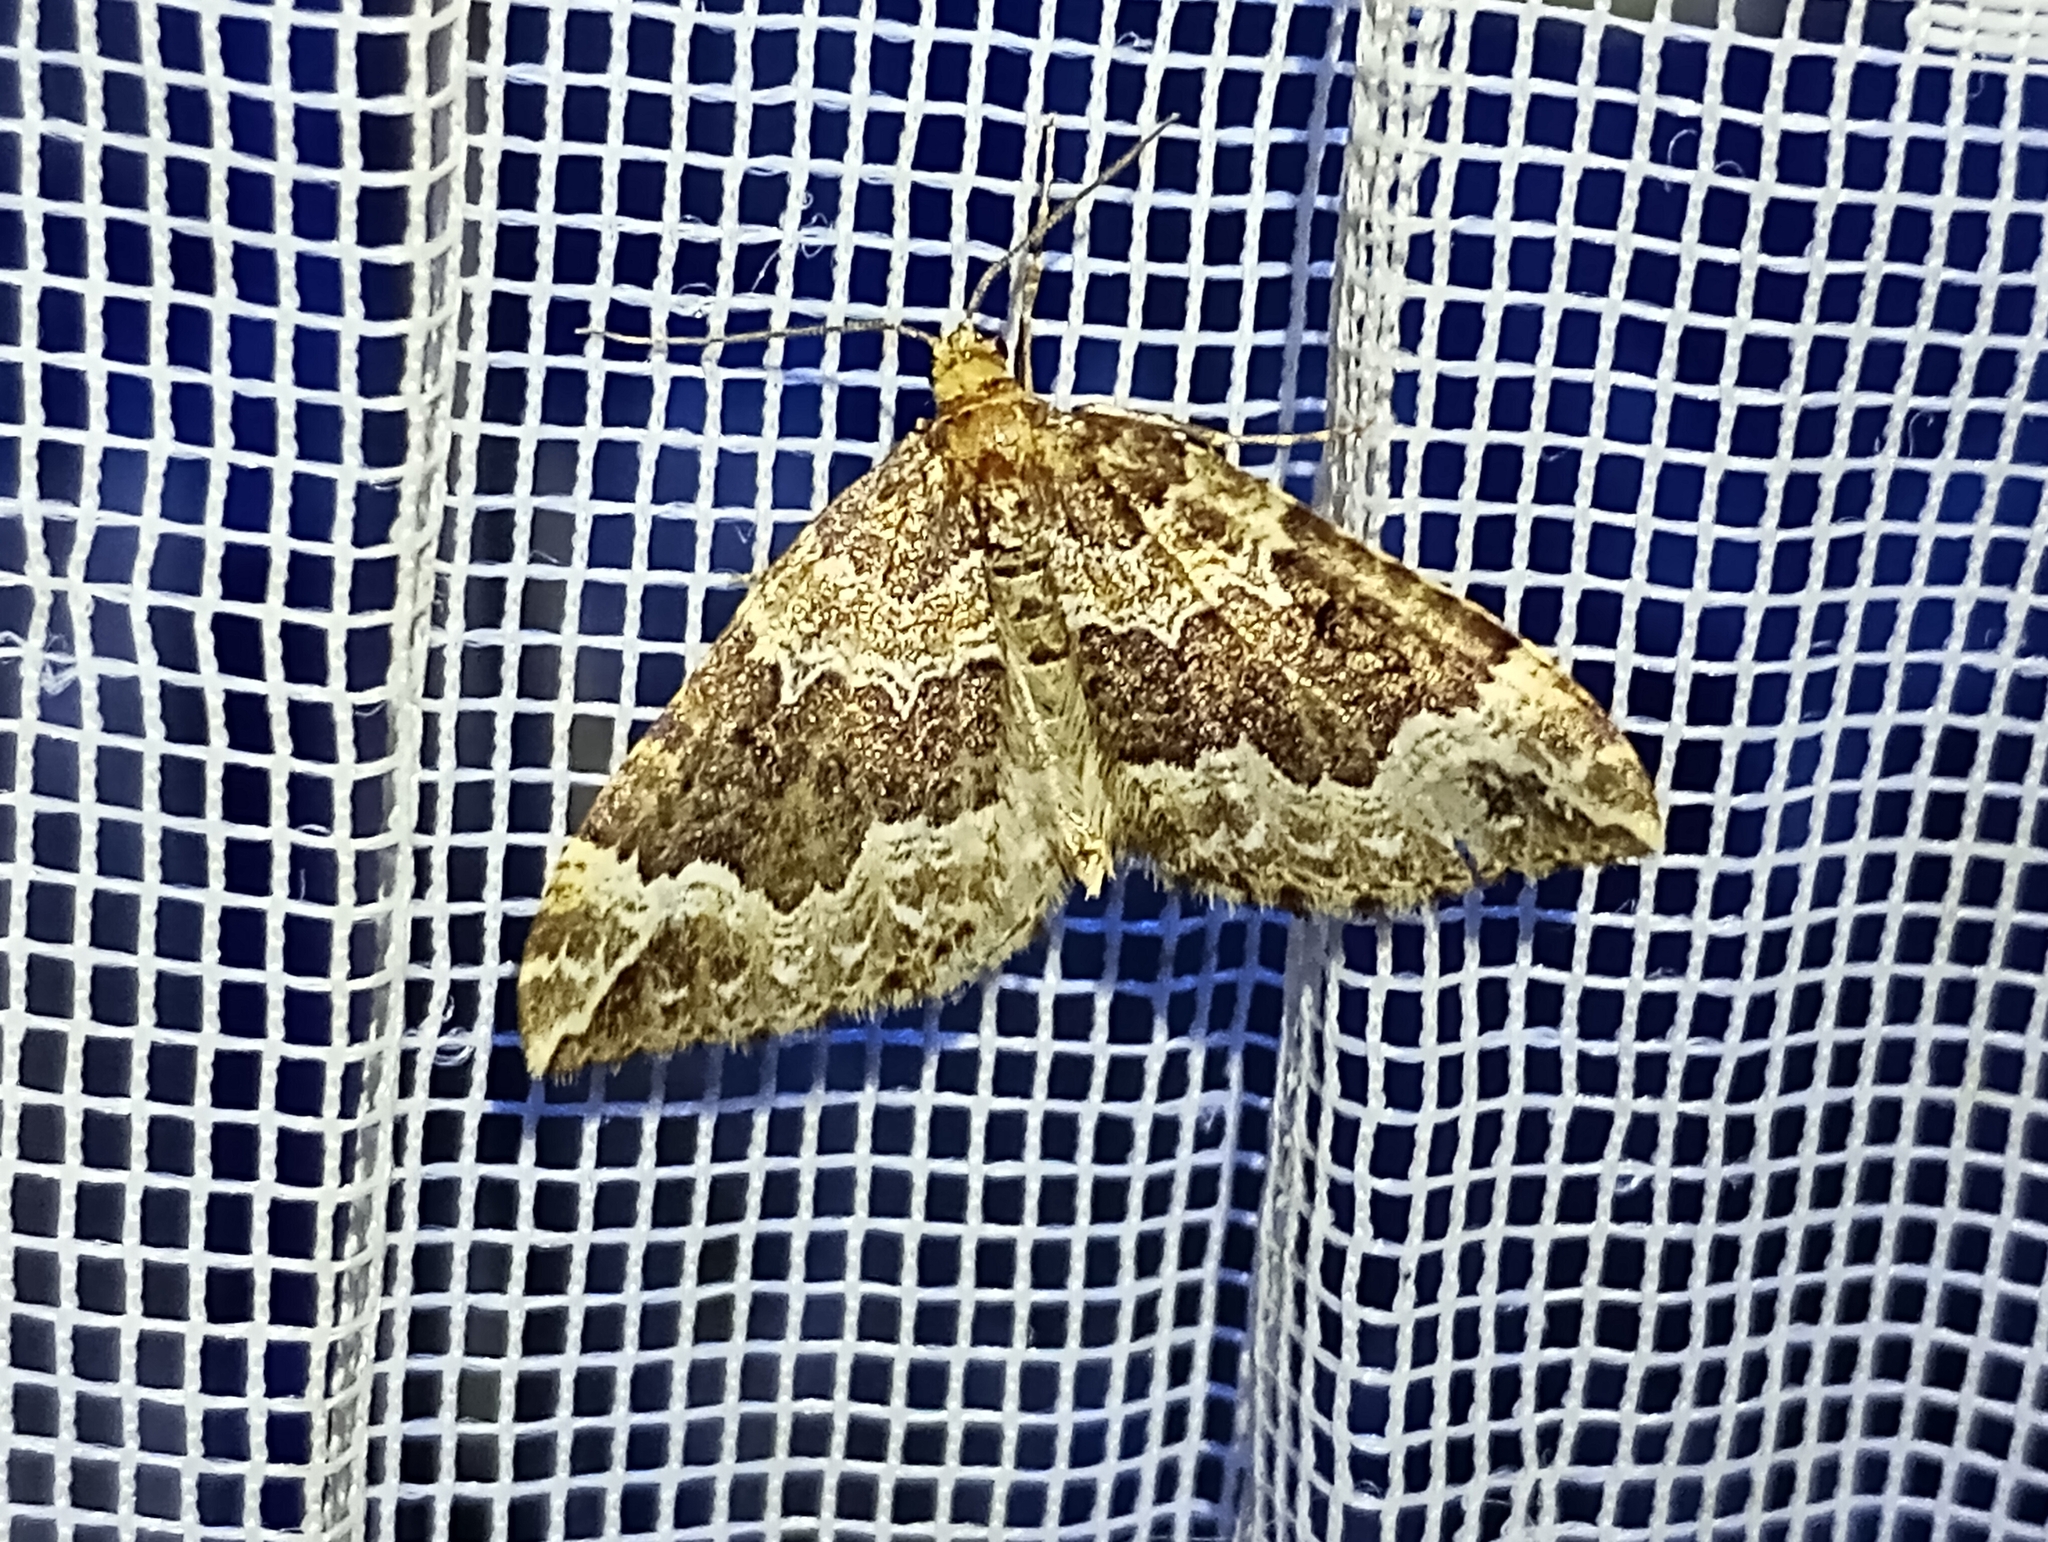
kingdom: Animalia
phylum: Arthropoda
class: Insecta
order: Lepidoptera
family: Geometridae
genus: Lampropteryx
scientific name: Lampropteryx suffumata
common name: Water carpet
